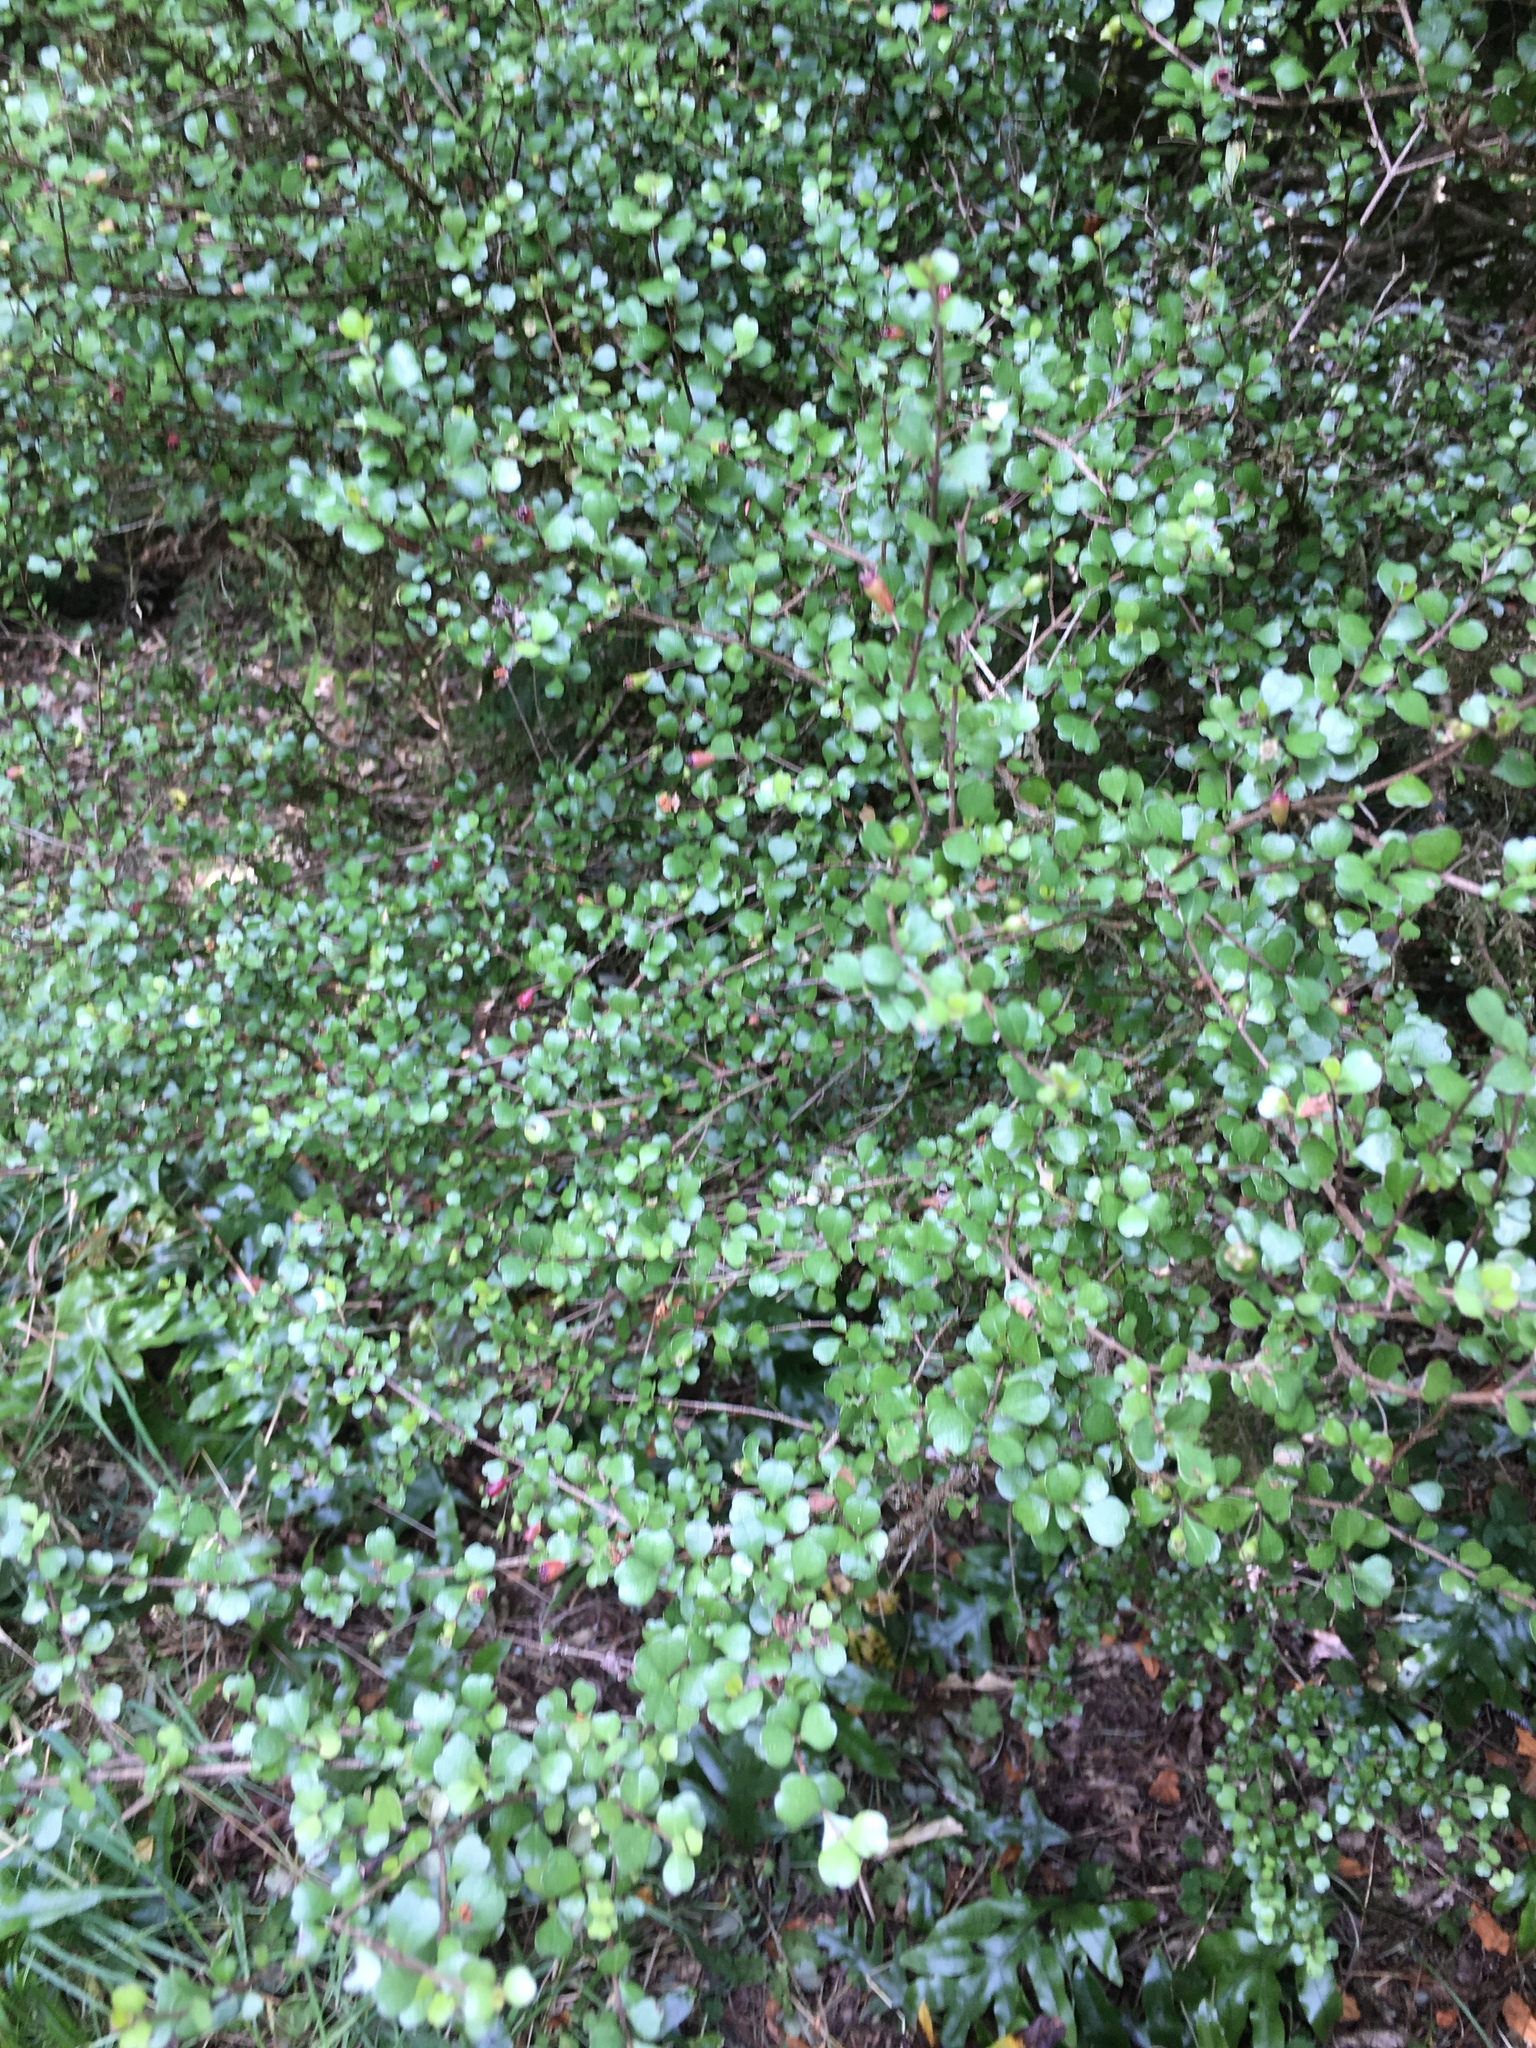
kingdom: Plantae
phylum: Tracheophyta
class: Magnoliopsida
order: Myrtales
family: Myrtaceae
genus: Lophomyrtus
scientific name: Lophomyrtus obcordata
